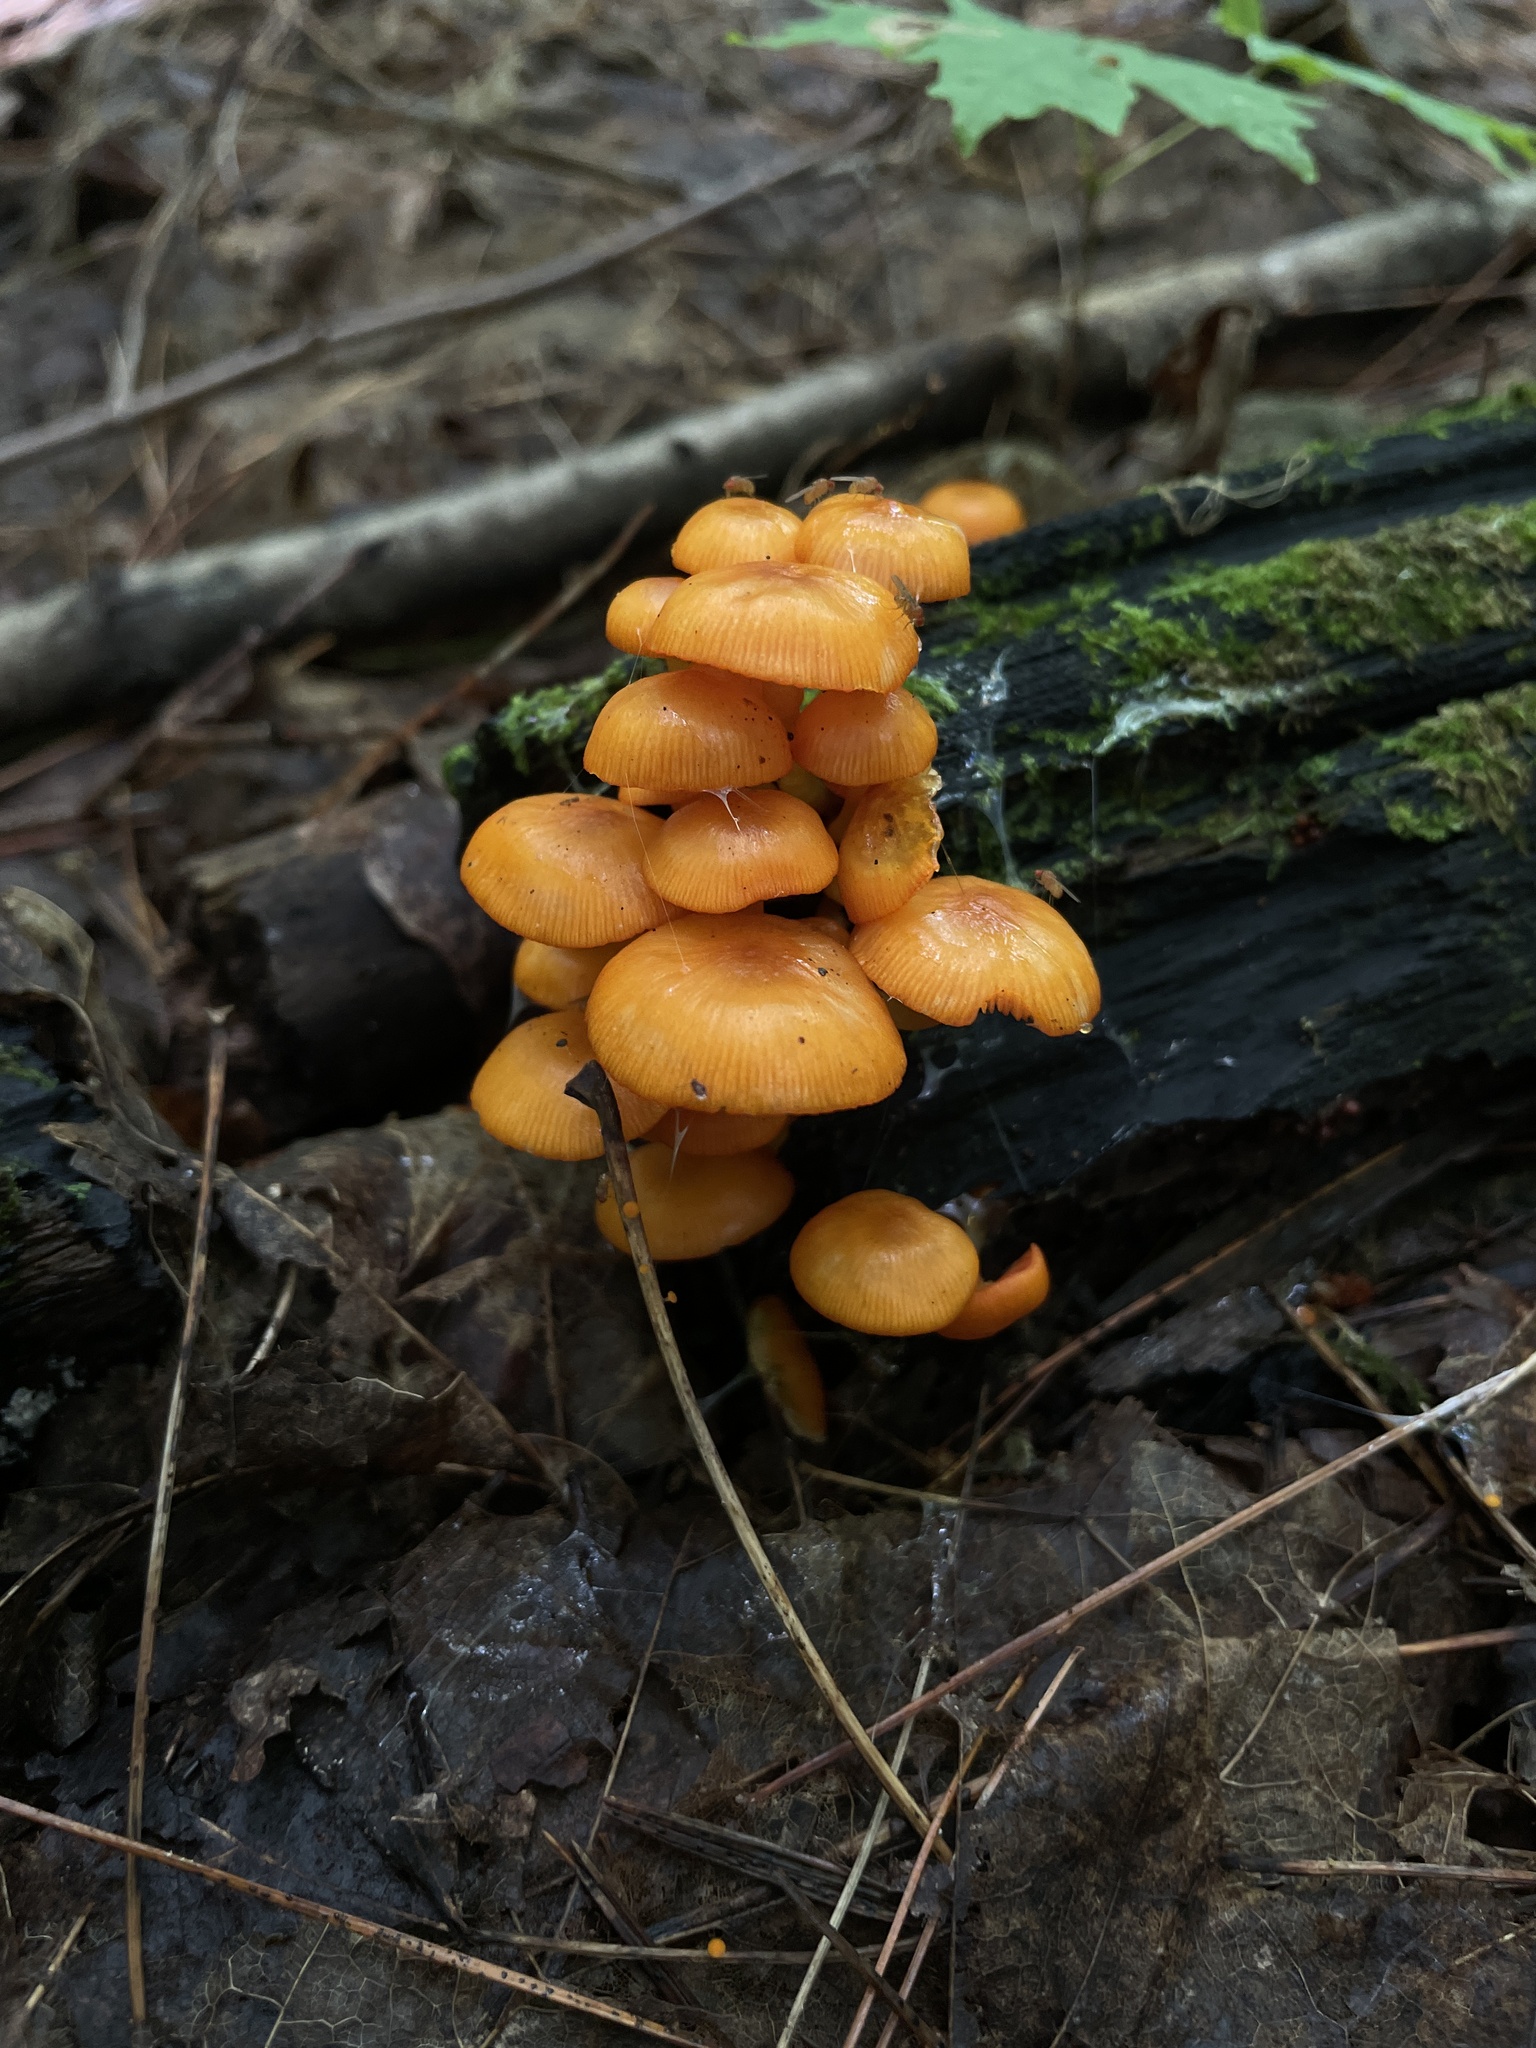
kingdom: Fungi
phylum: Basidiomycota
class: Agaricomycetes
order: Agaricales
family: Mycenaceae
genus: Mycena
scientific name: Mycena leaiana
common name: Orange mycena
